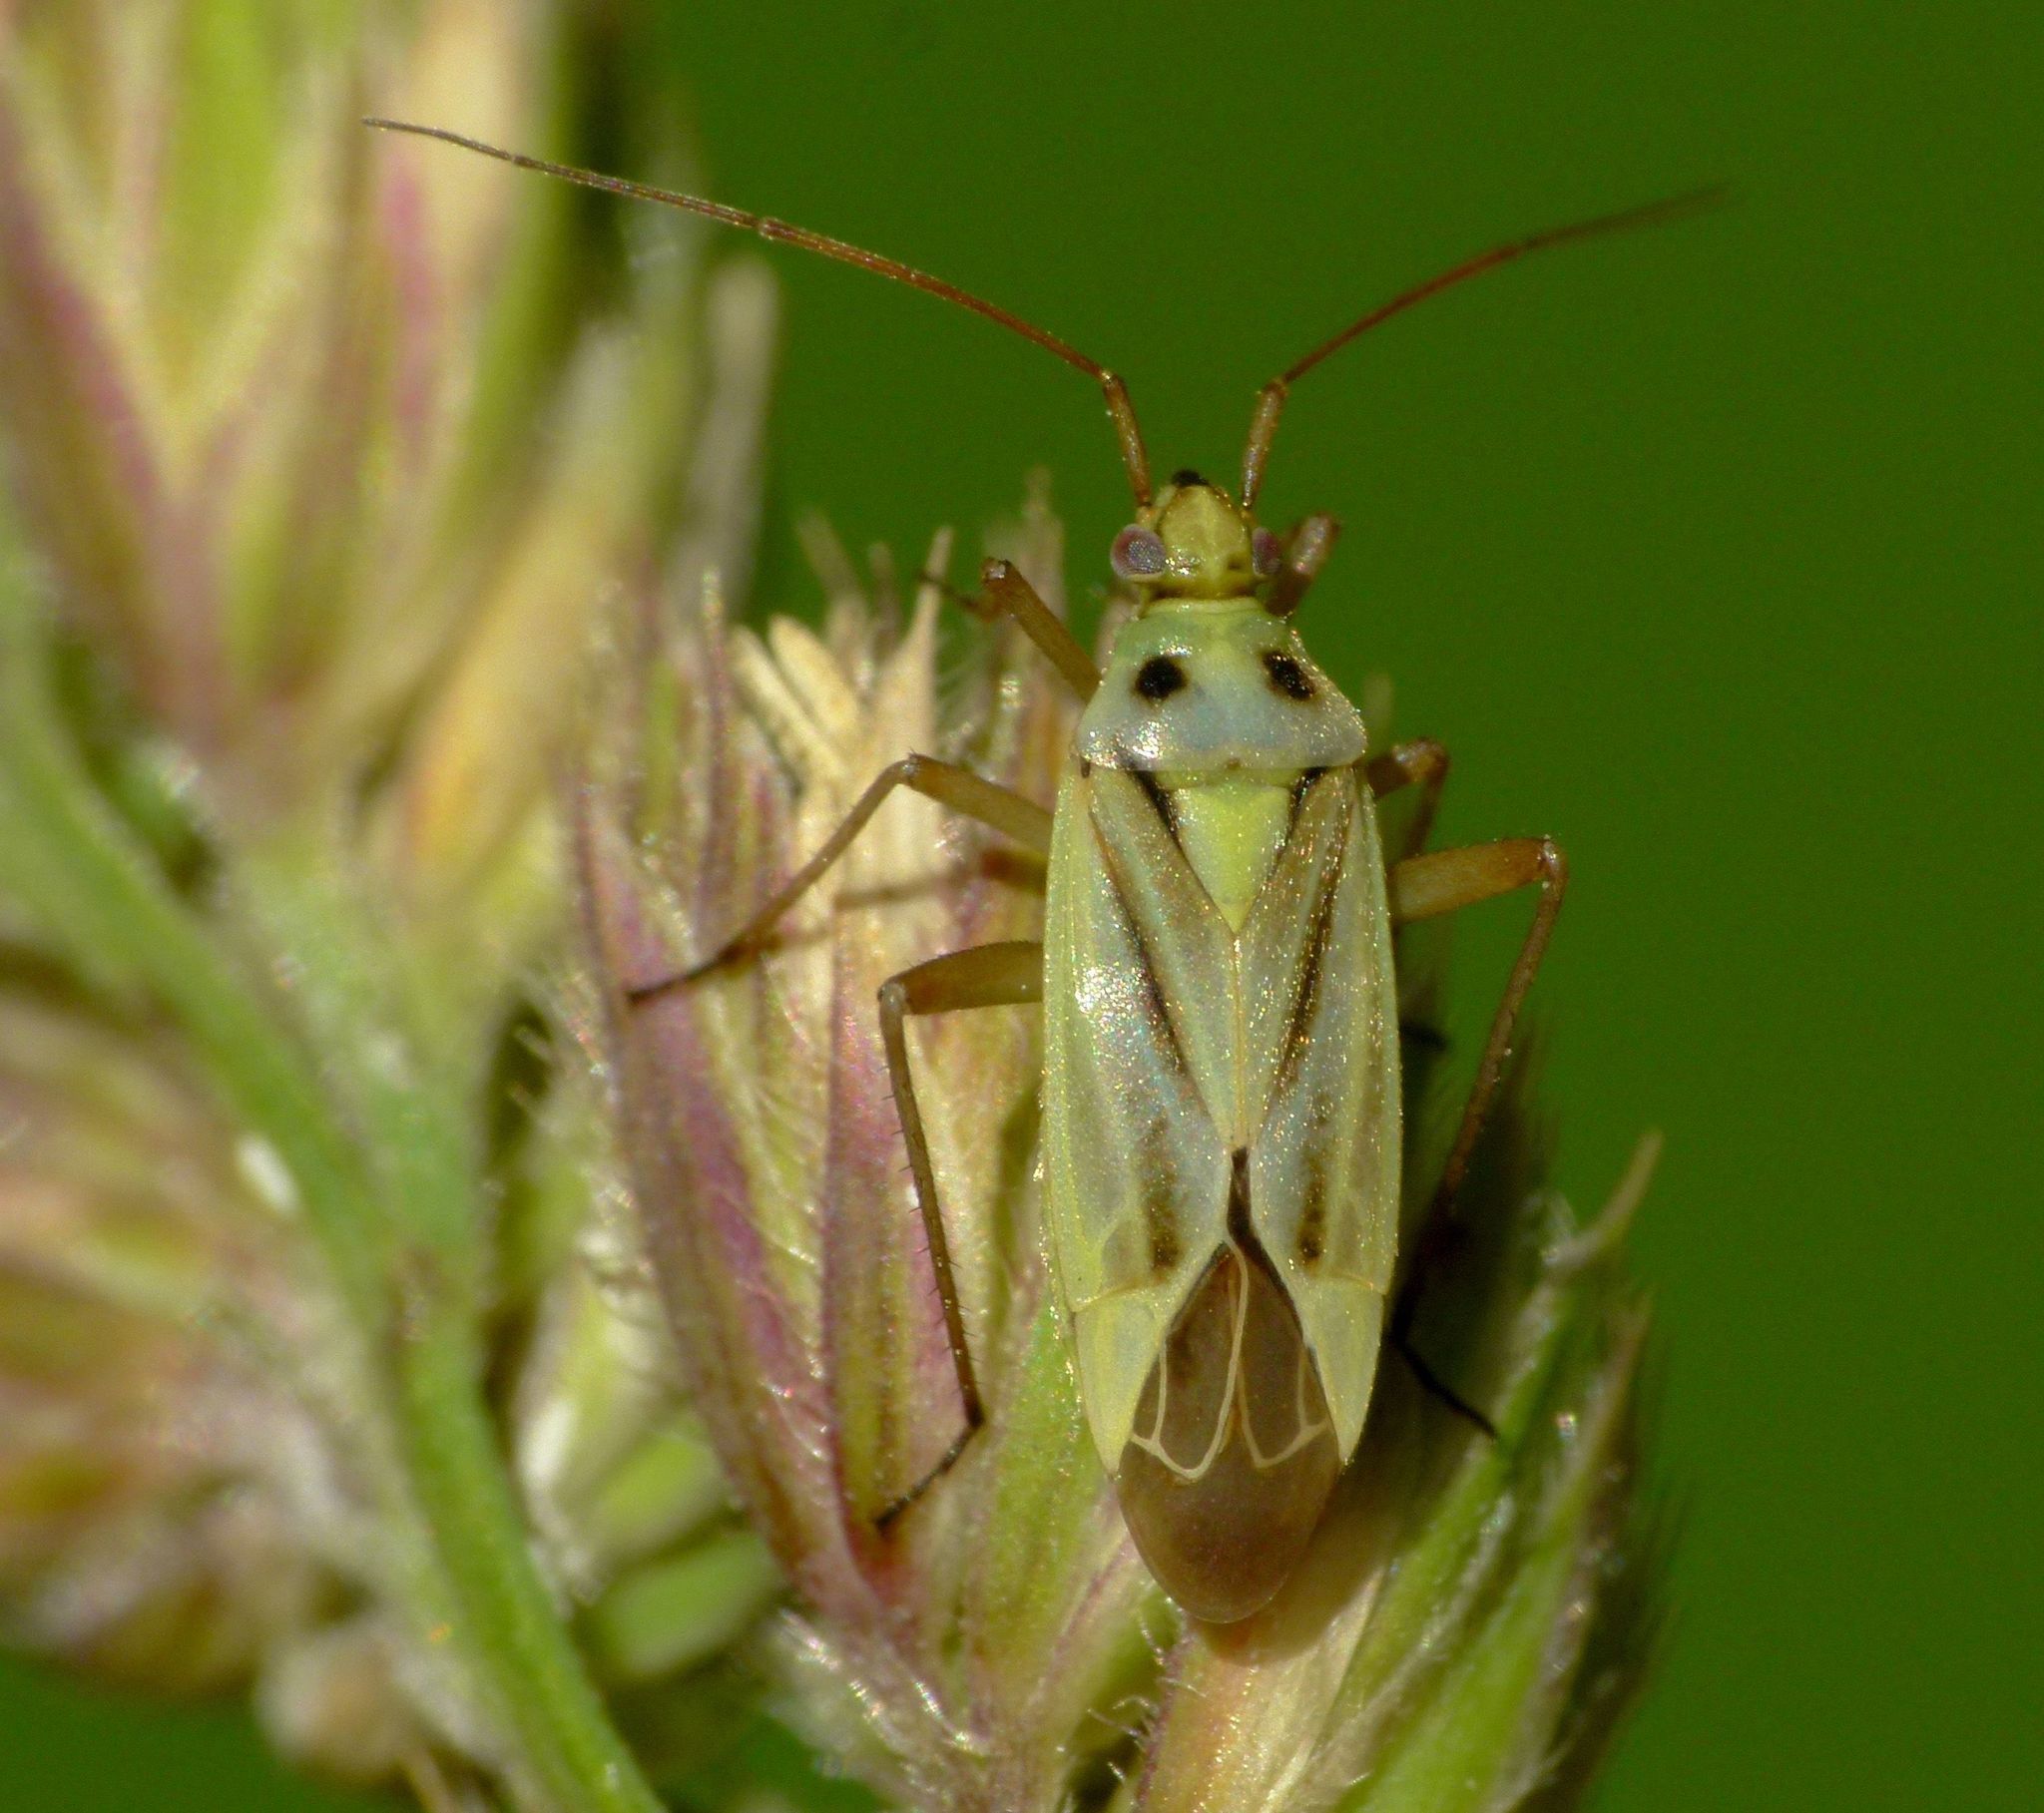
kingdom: Animalia
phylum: Arthropoda
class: Insecta
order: Hemiptera
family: Miridae
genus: Stenotus
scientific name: Stenotus binotatus
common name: Plant bug
